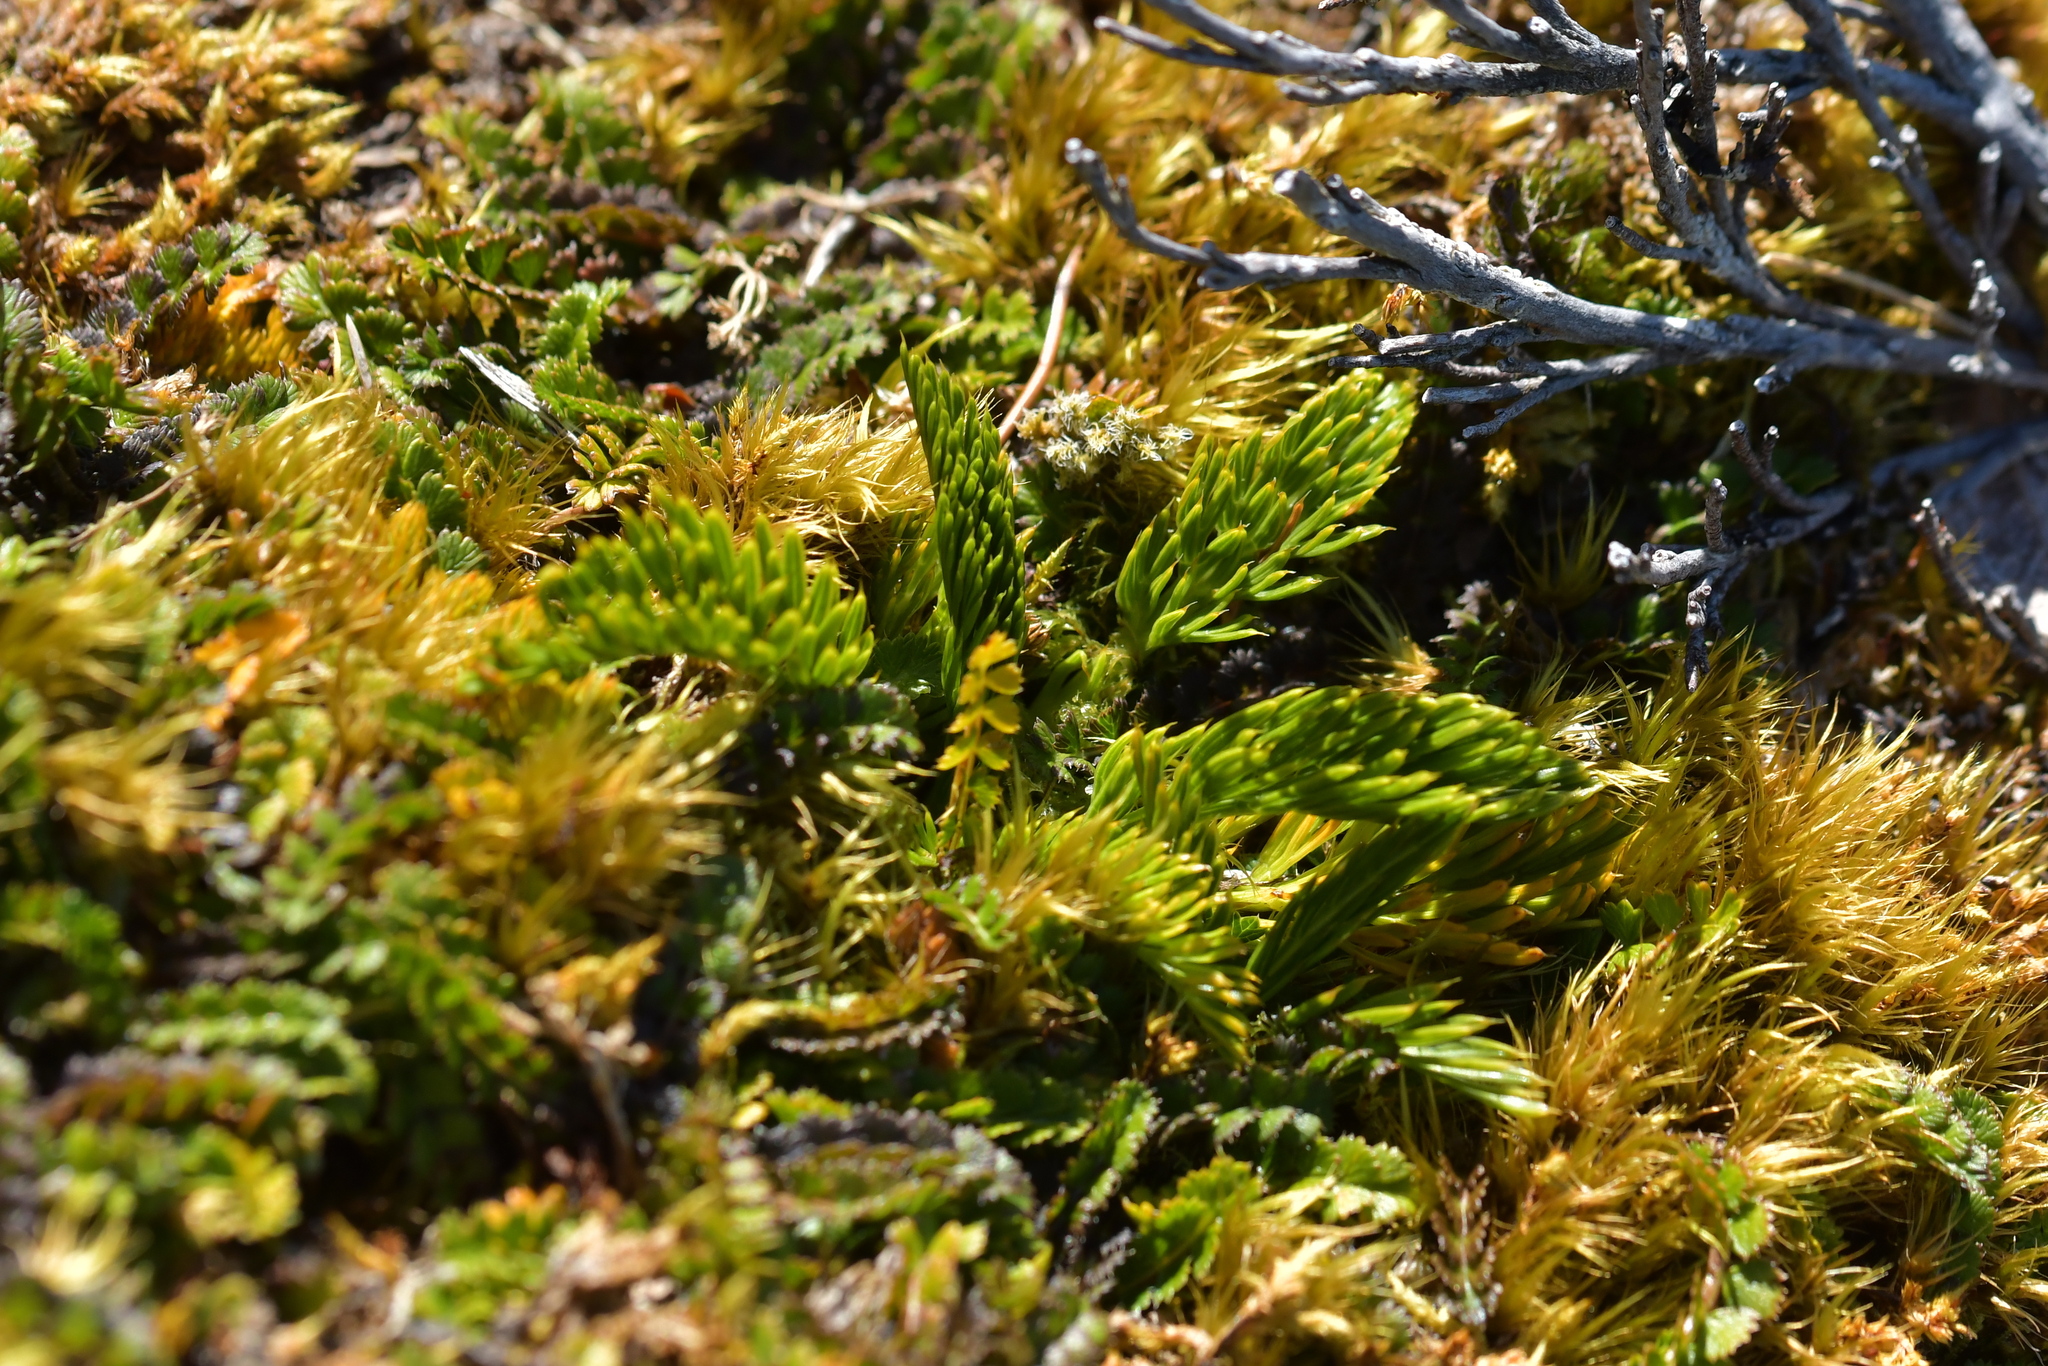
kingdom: Plantae
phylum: Tracheophyta
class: Magnoliopsida
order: Apiales
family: Apiaceae
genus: Aciphylla
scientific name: Aciphylla dissecta
